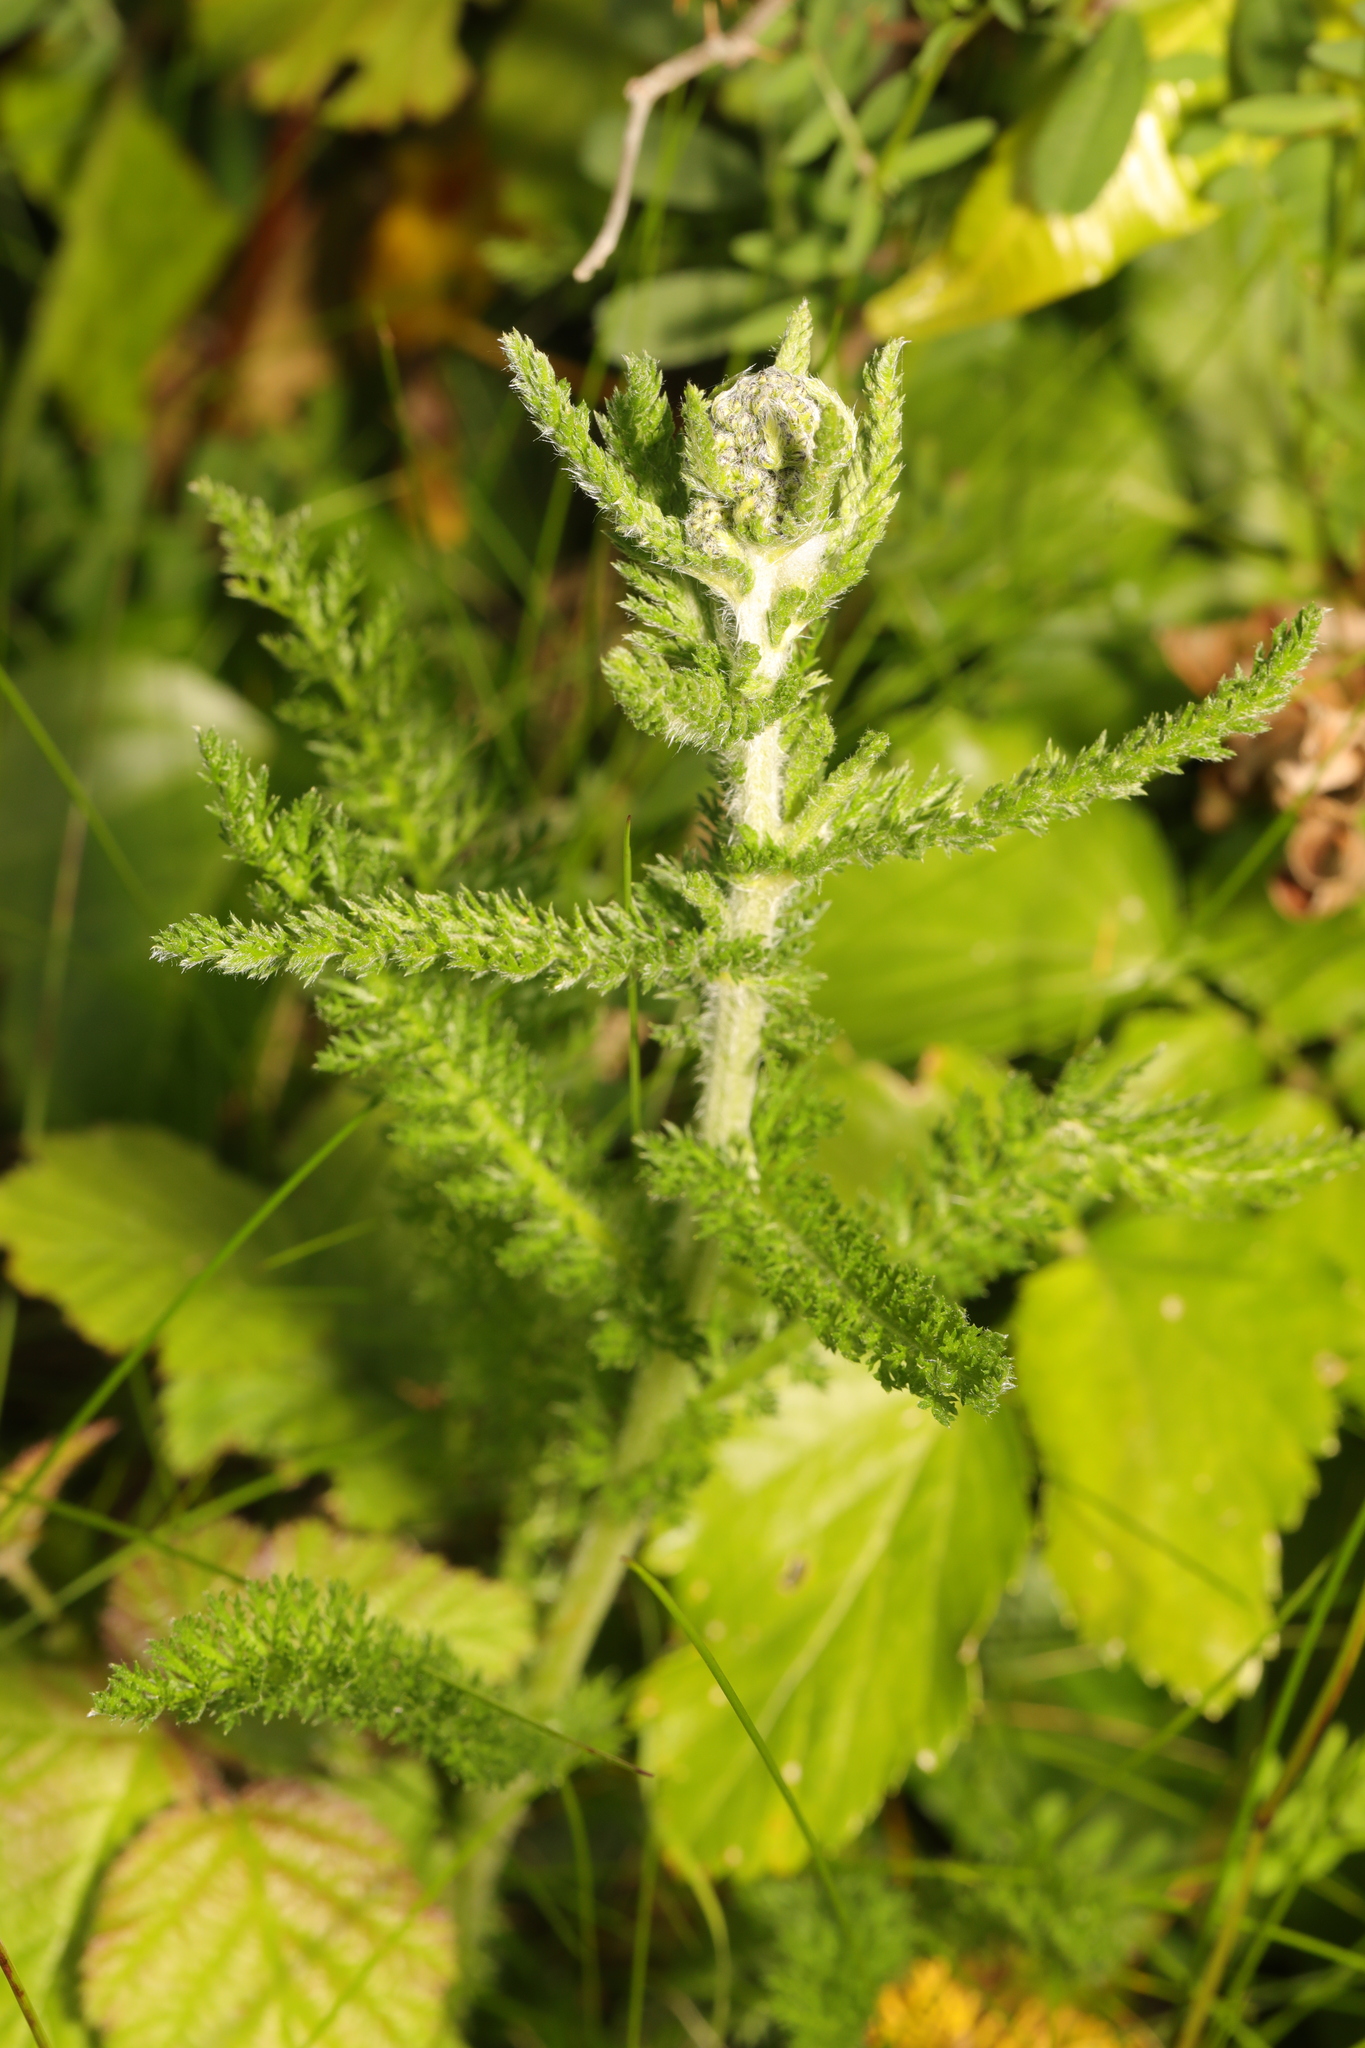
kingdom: Plantae
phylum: Tracheophyta
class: Magnoliopsida
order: Asterales
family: Asteraceae
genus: Achillea
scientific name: Achillea millefolium
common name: Yarrow
